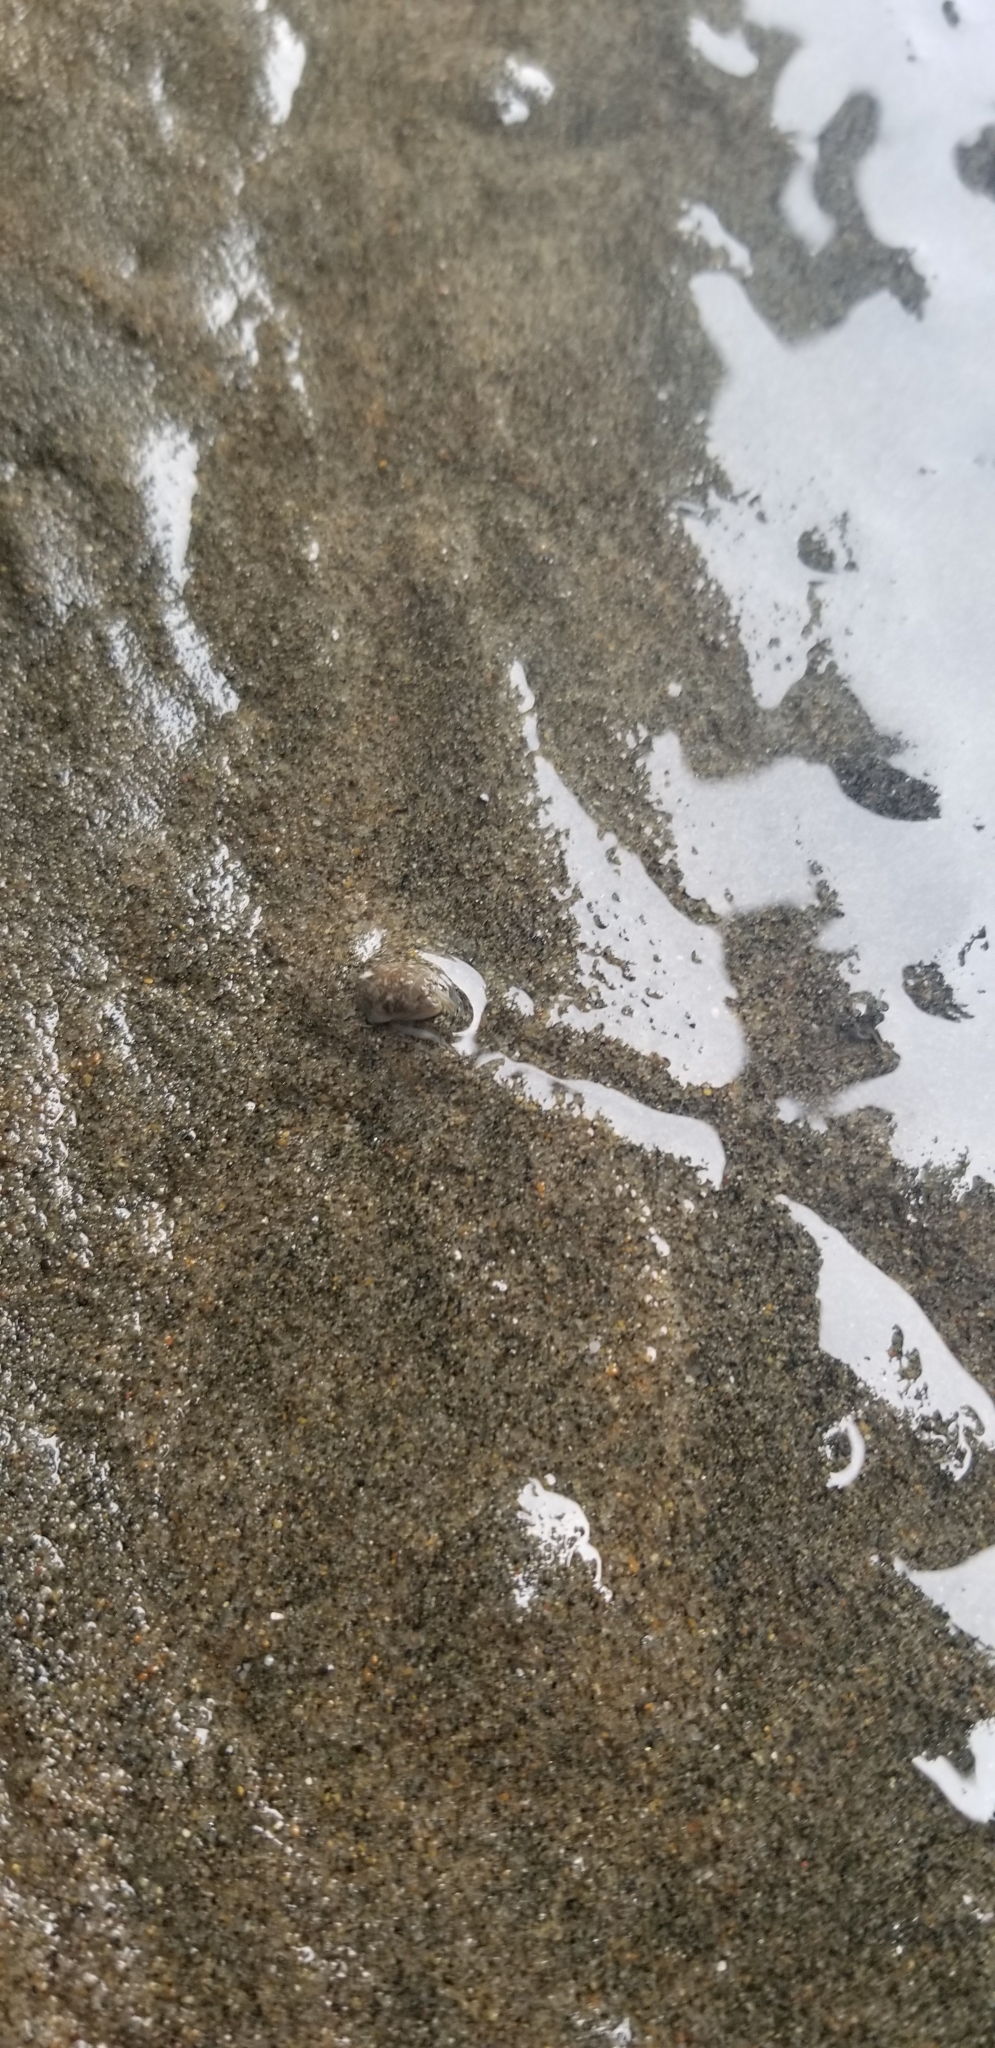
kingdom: Animalia
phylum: Arthropoda
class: Malacostraca
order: Decapoda
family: Hippidae
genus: Emerita
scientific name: Emerita analoga
